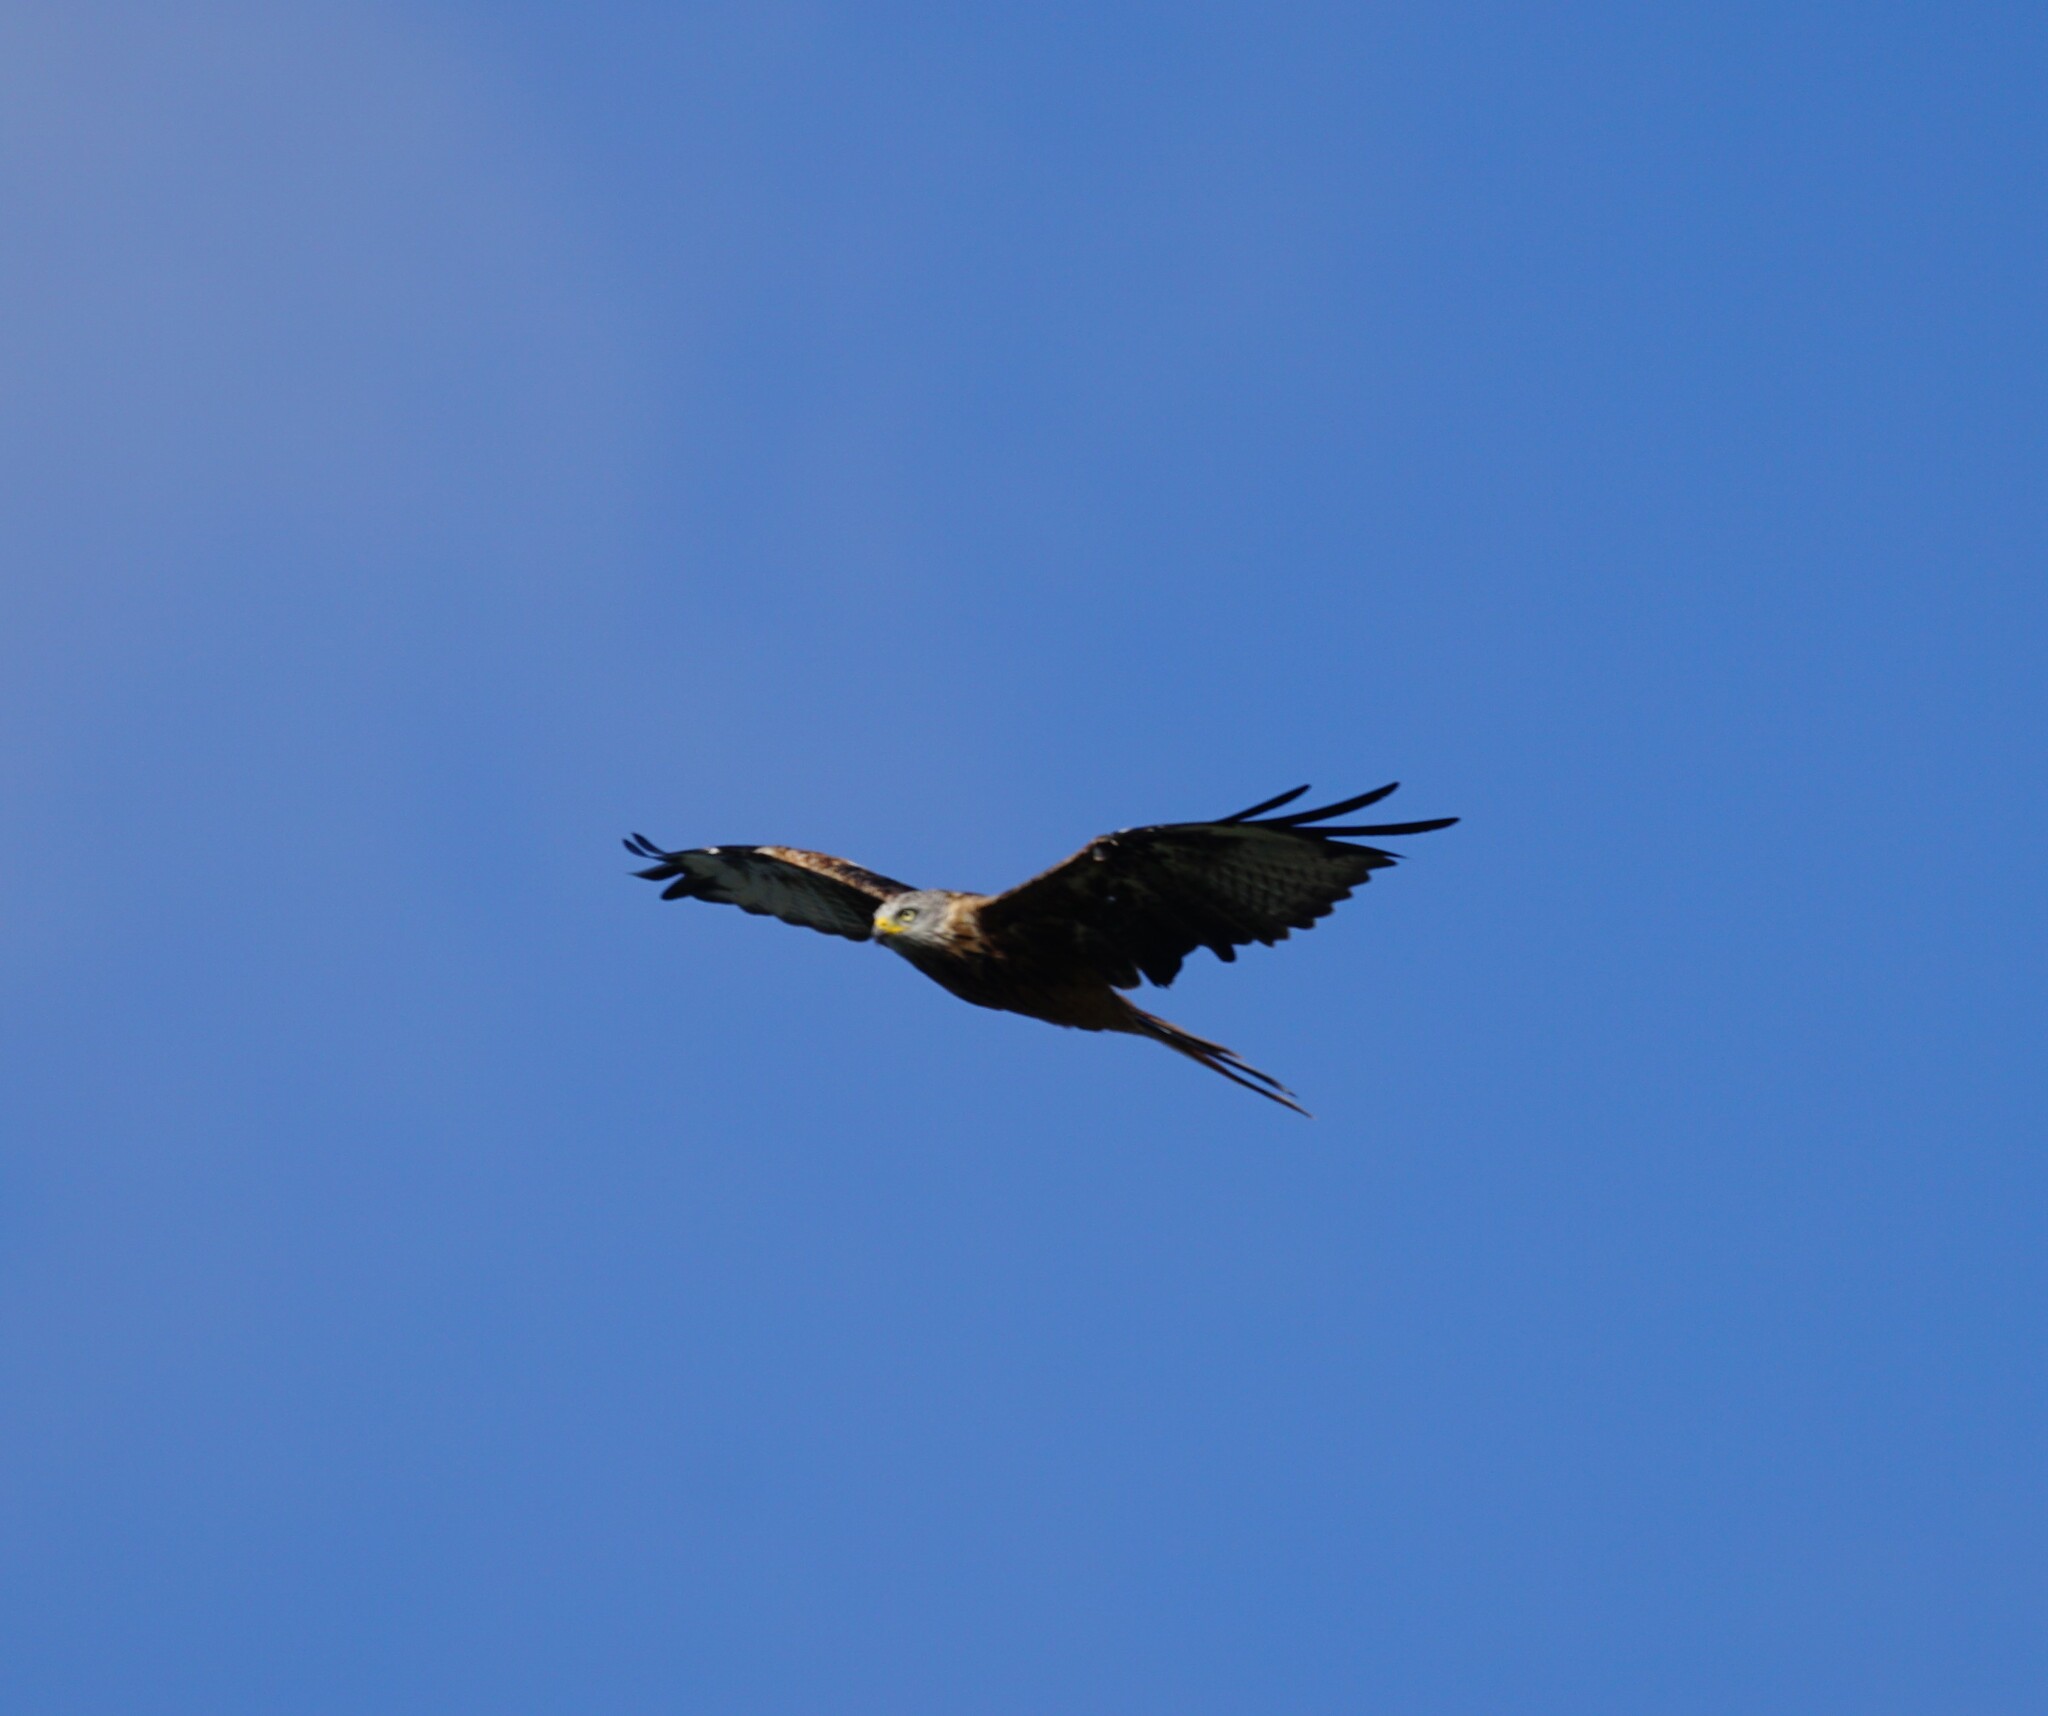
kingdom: Animalia
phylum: Chordata
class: Aves
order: Accipitriformes
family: Accipitridae
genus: Milvus
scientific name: Milvus milvus
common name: Red kite
